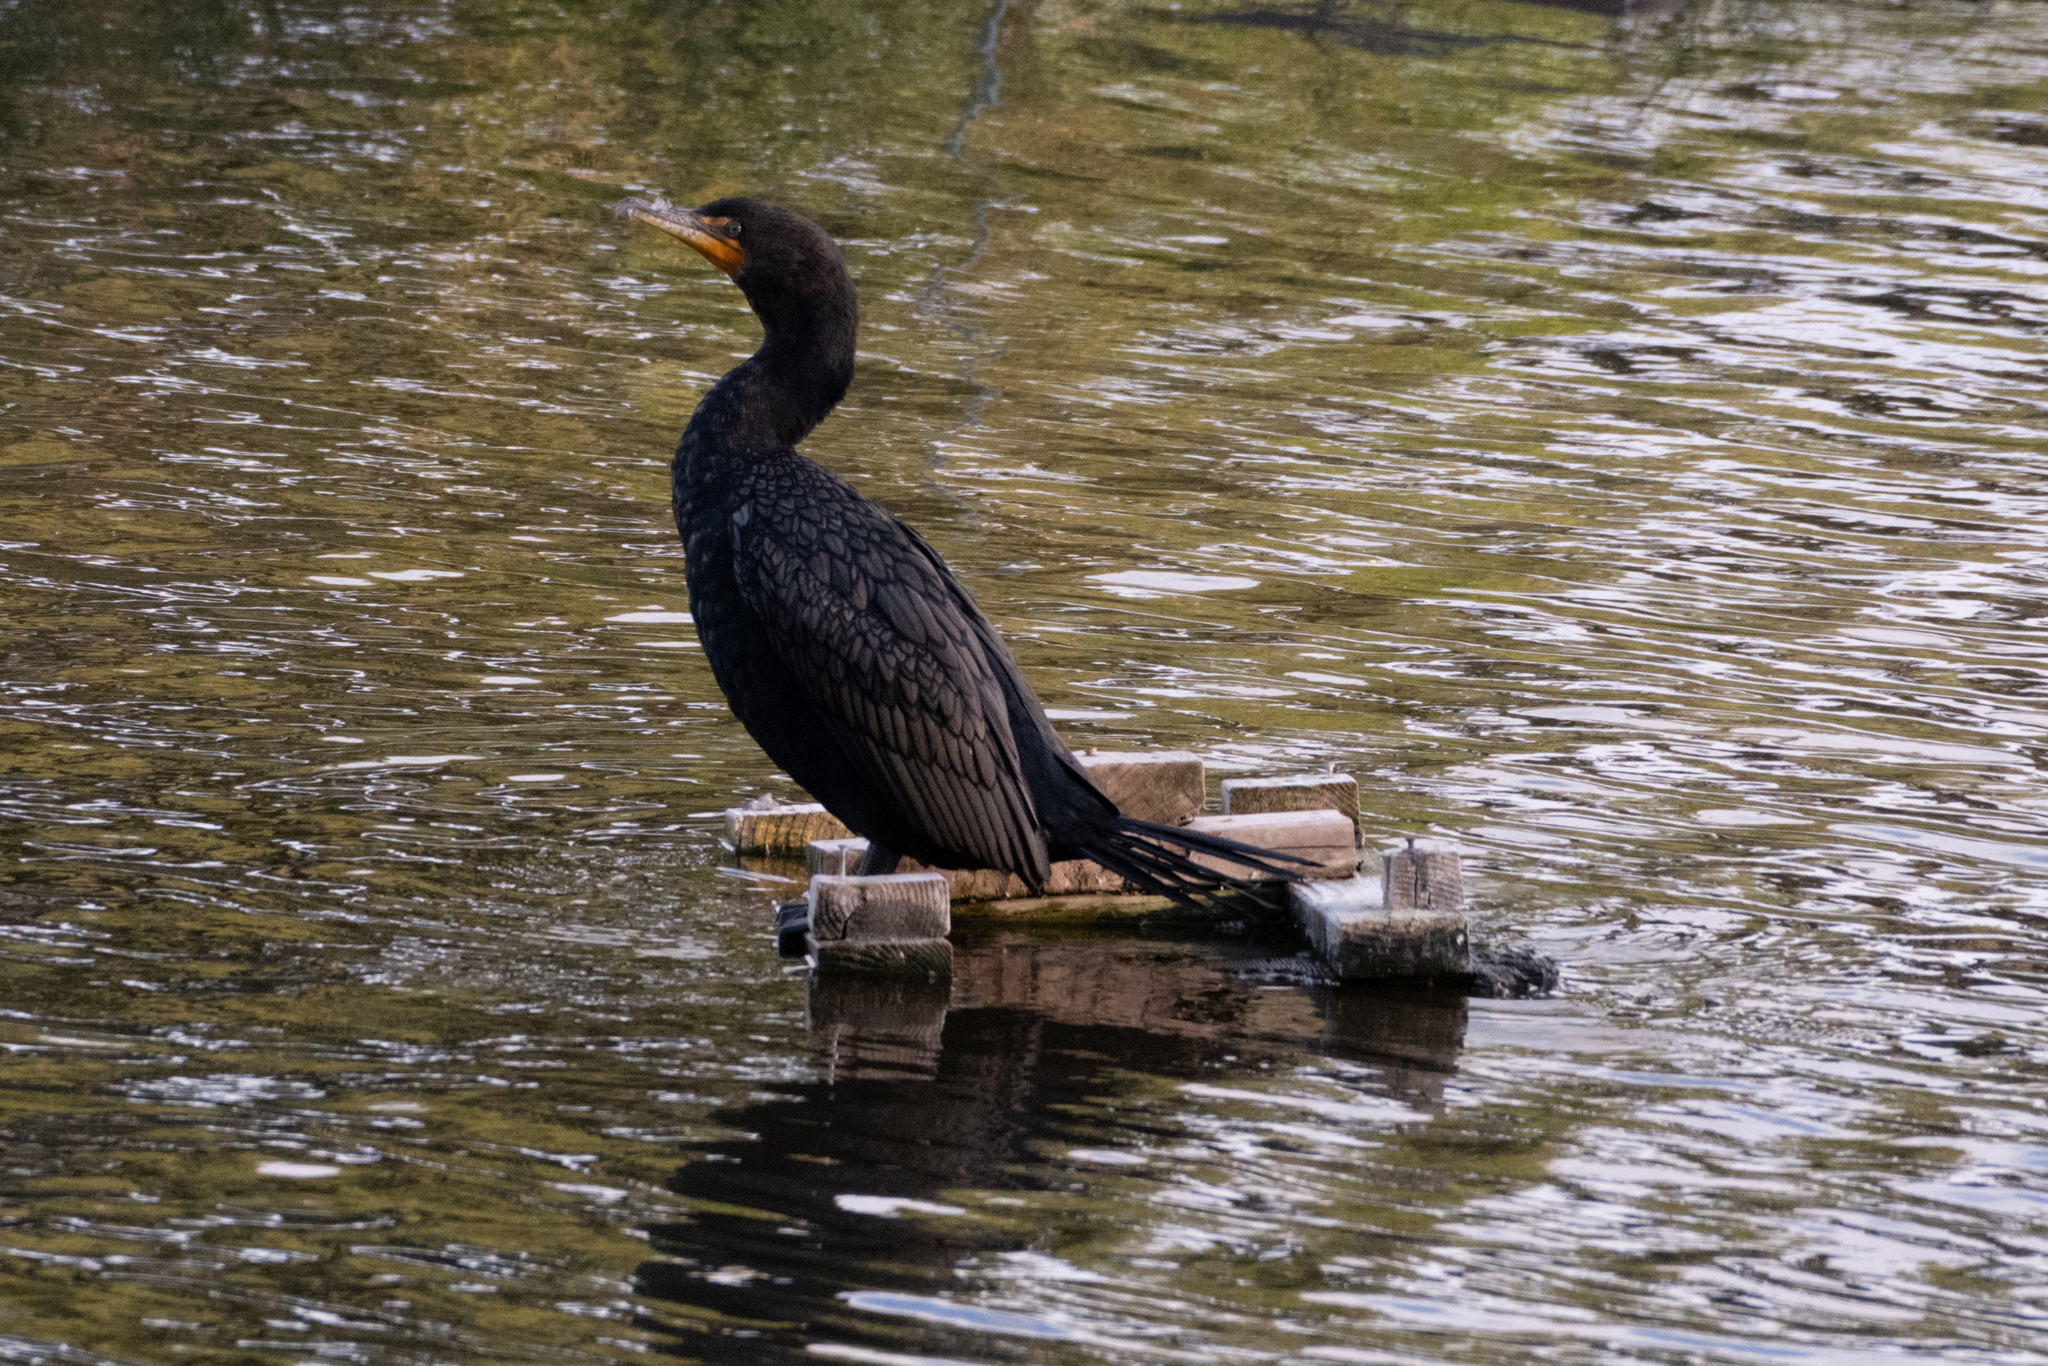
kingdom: Animalia
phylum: Chordata
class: Aves
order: Suliformes
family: Phalacrocoracidae
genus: Phalacrocorax
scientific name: Phalacrocorax auritus
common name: Double-crested cormorant
